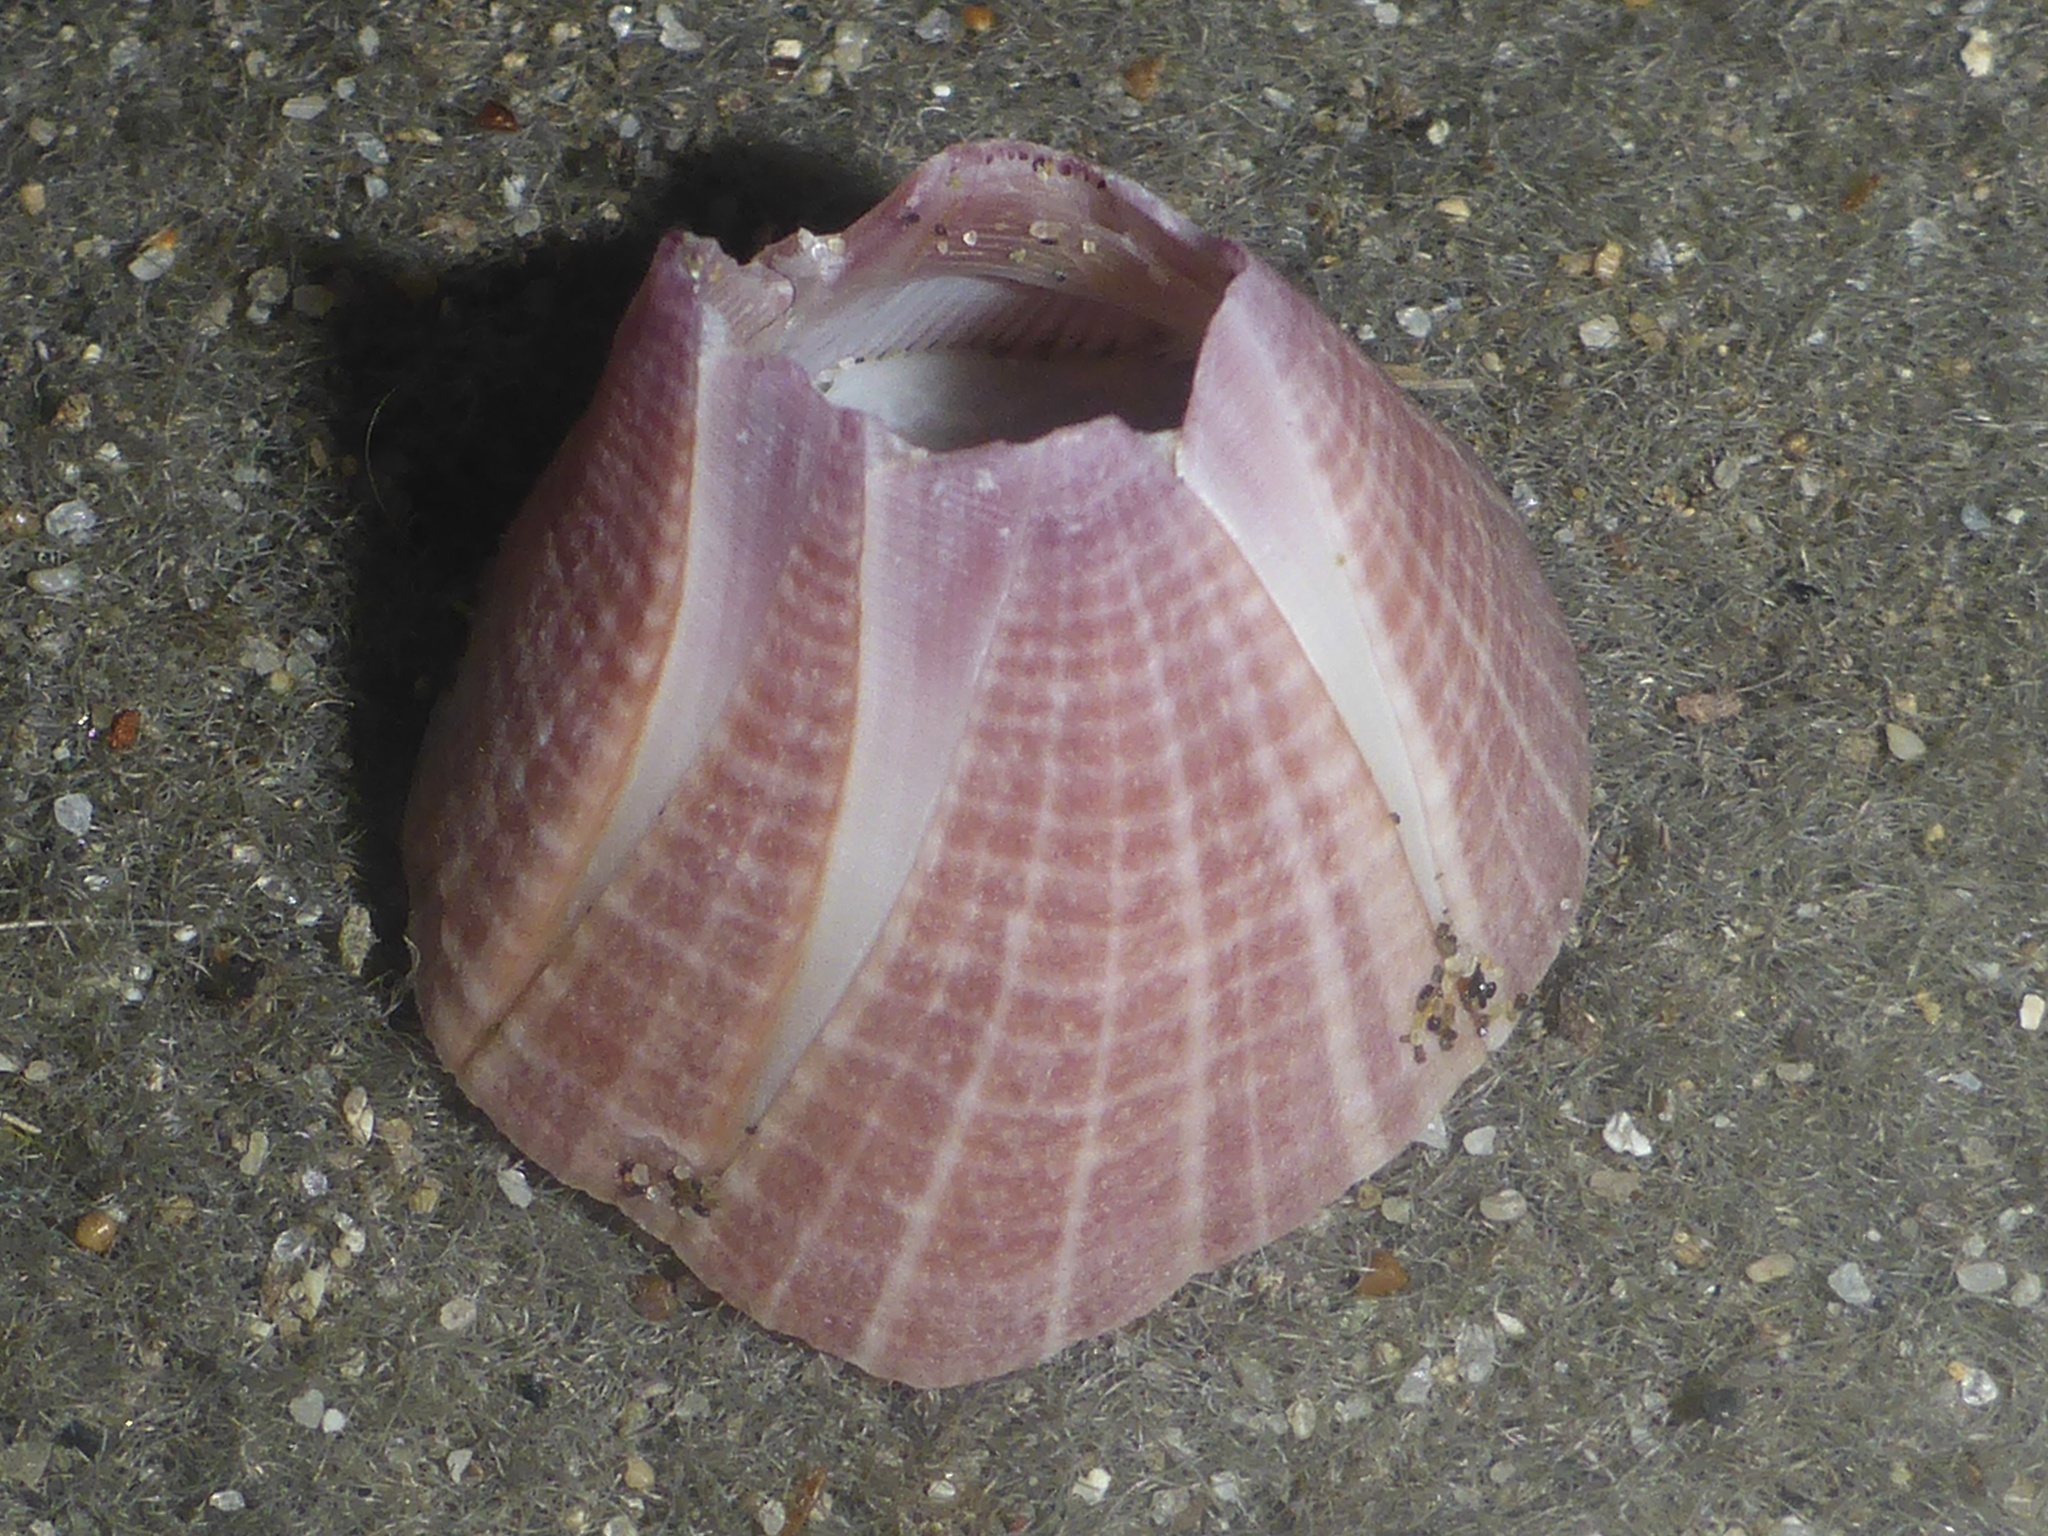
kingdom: Animalia
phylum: Arthropoda
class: Maxillopoda
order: Sessilia
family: Balanidae
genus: Paraconcavus
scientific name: Paraconcavus pacificus
